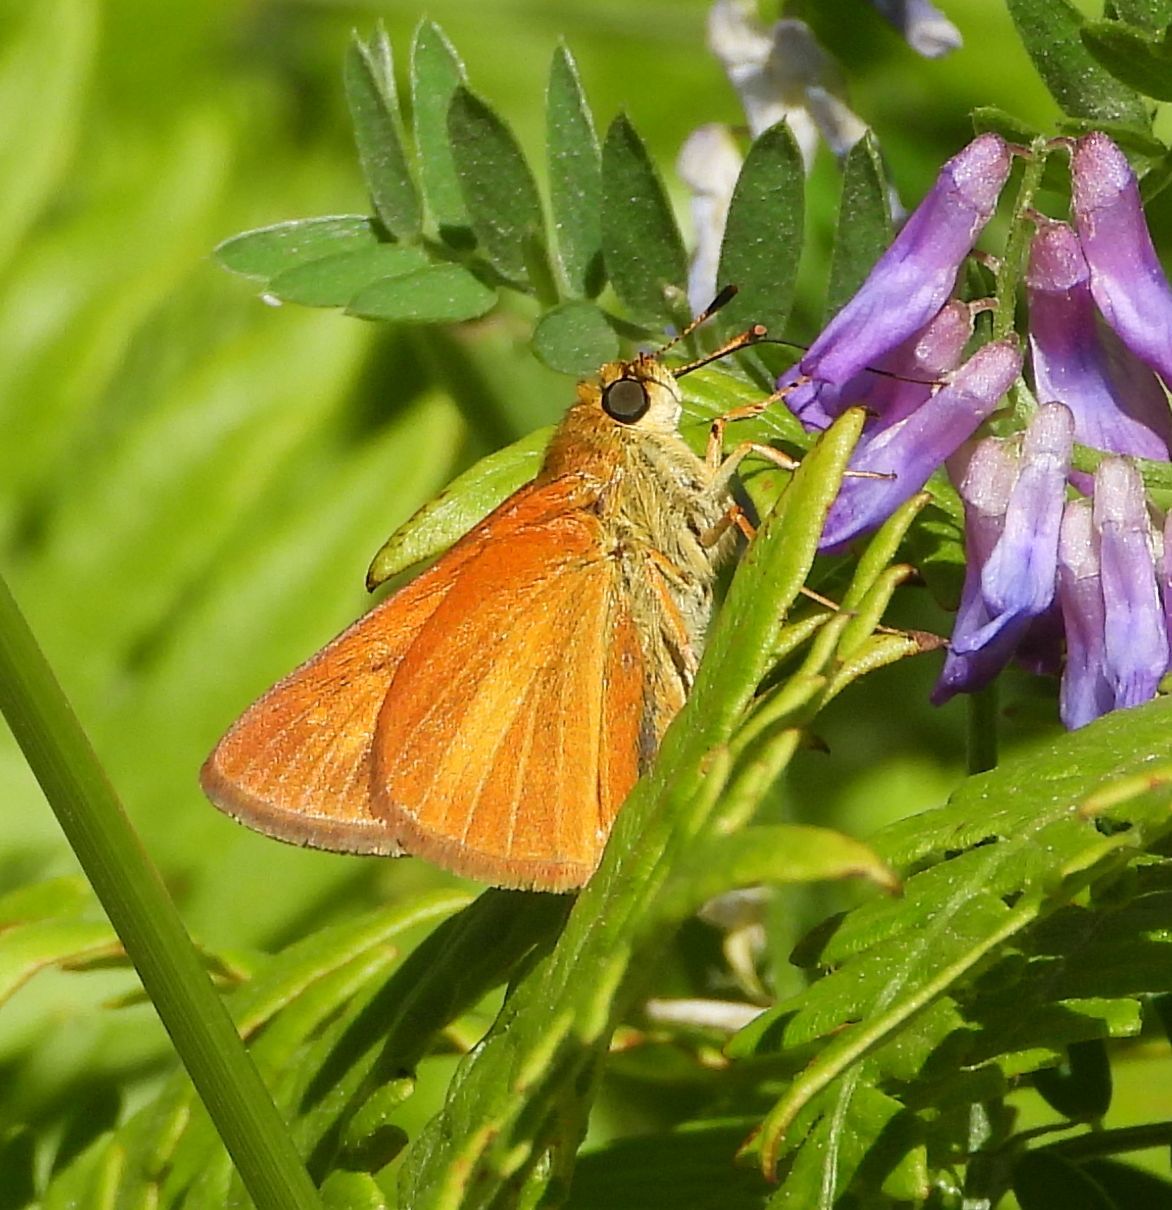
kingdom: Animalia
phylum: Arthropoda
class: Insecta
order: Lepidoptera
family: Hesperiidae
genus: Euphyes
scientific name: Euphyes dion
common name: Dion skipper
